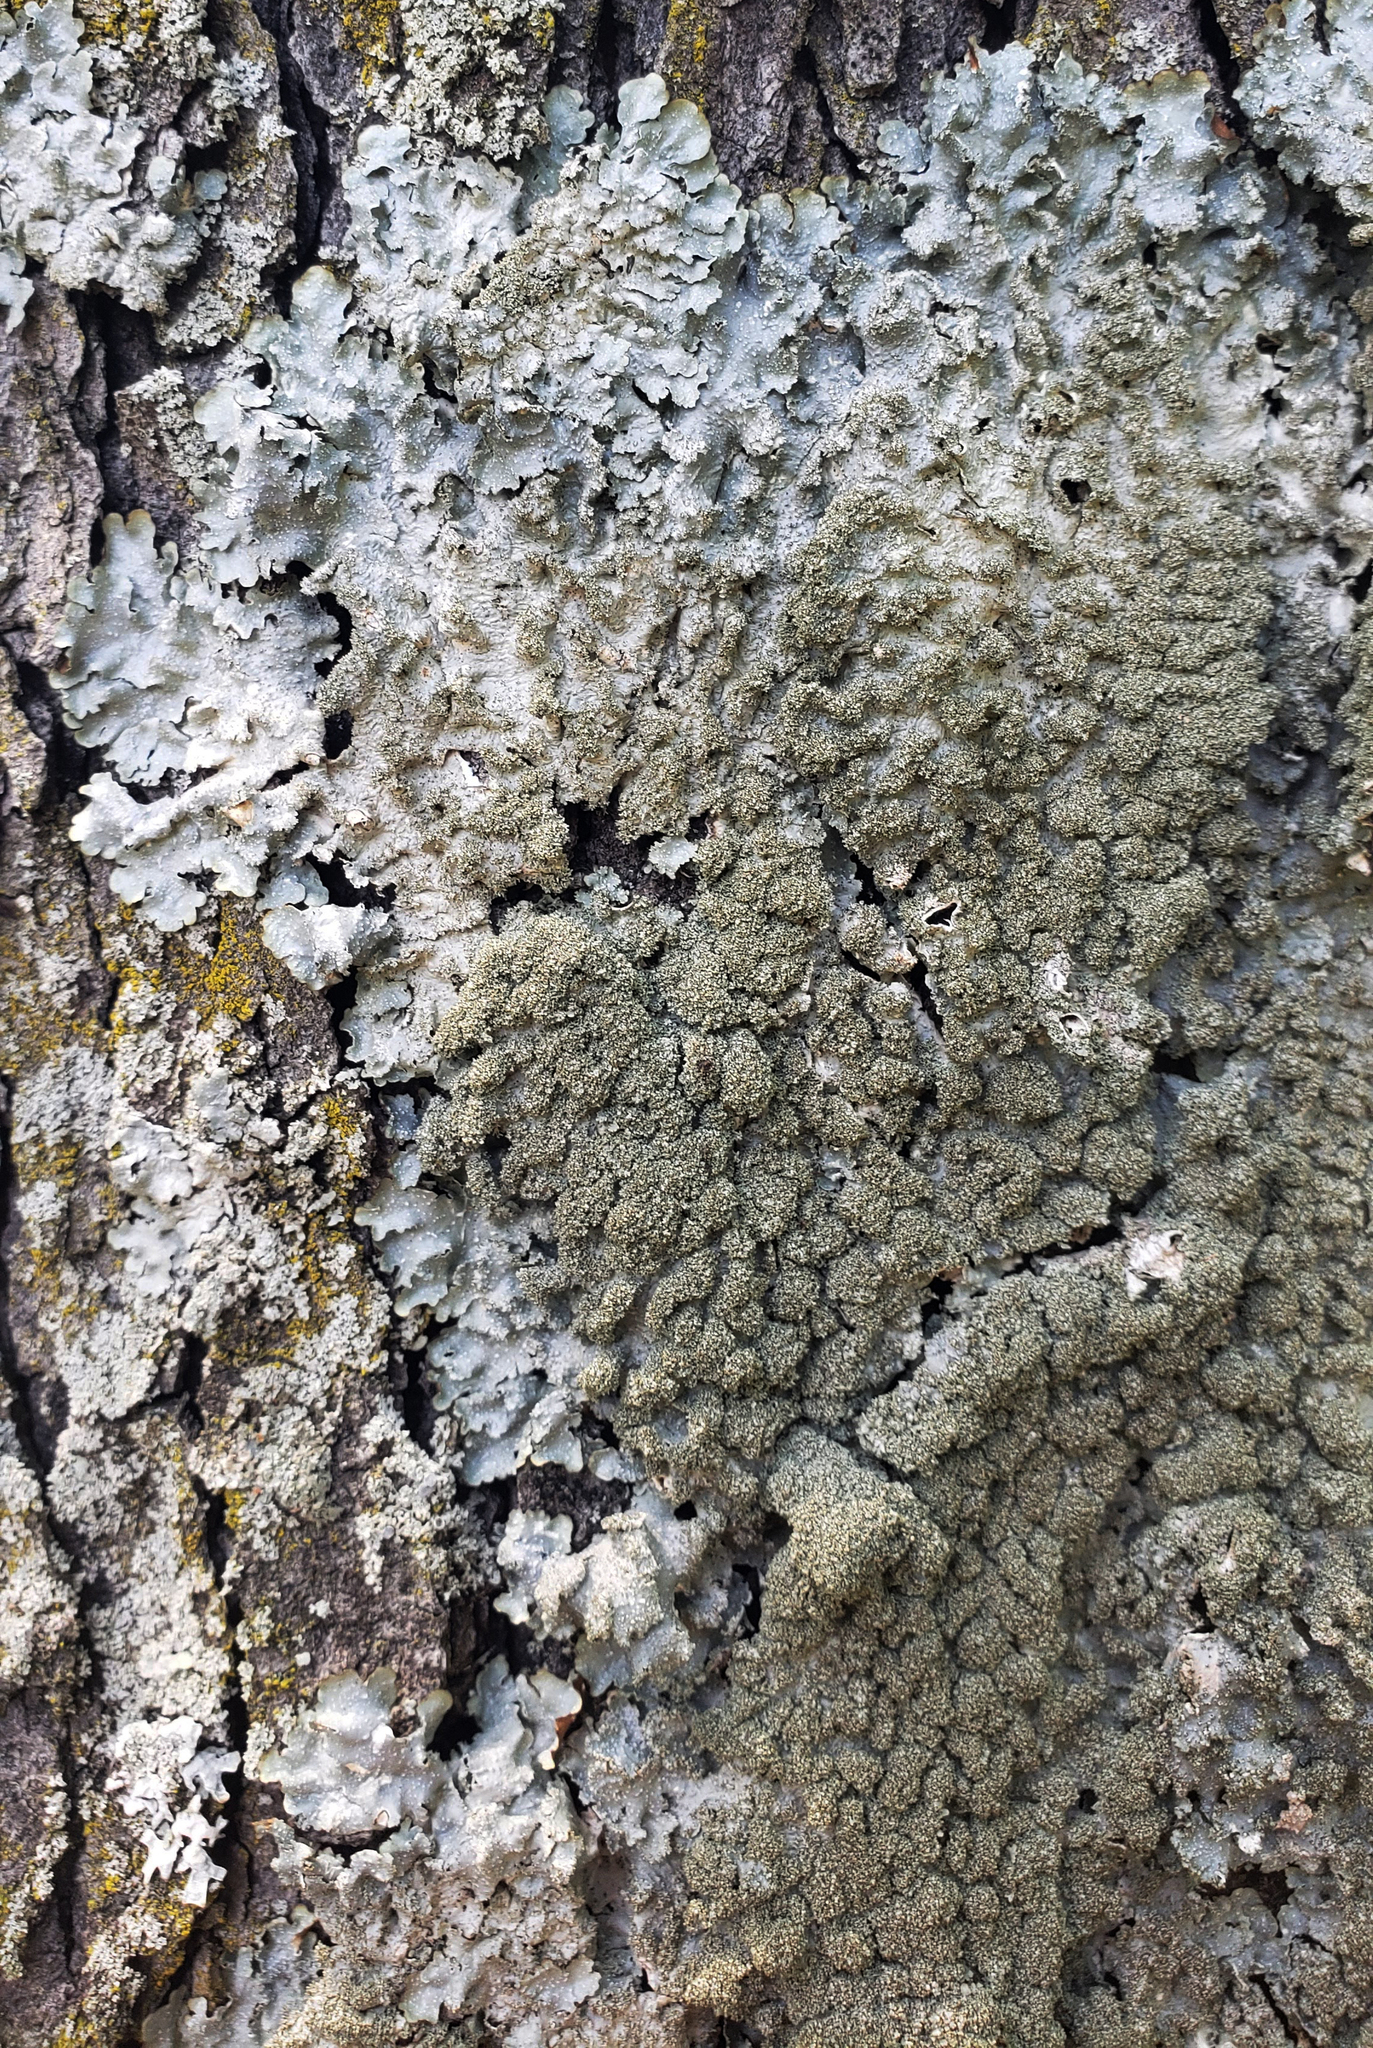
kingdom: Fungi
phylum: Ascomycota
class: Lecanoromycetes
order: Lecanorales
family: Parmeliaceae
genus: Punctelia
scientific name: Punctelia rudecta
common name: Rough speckled shield lichen
